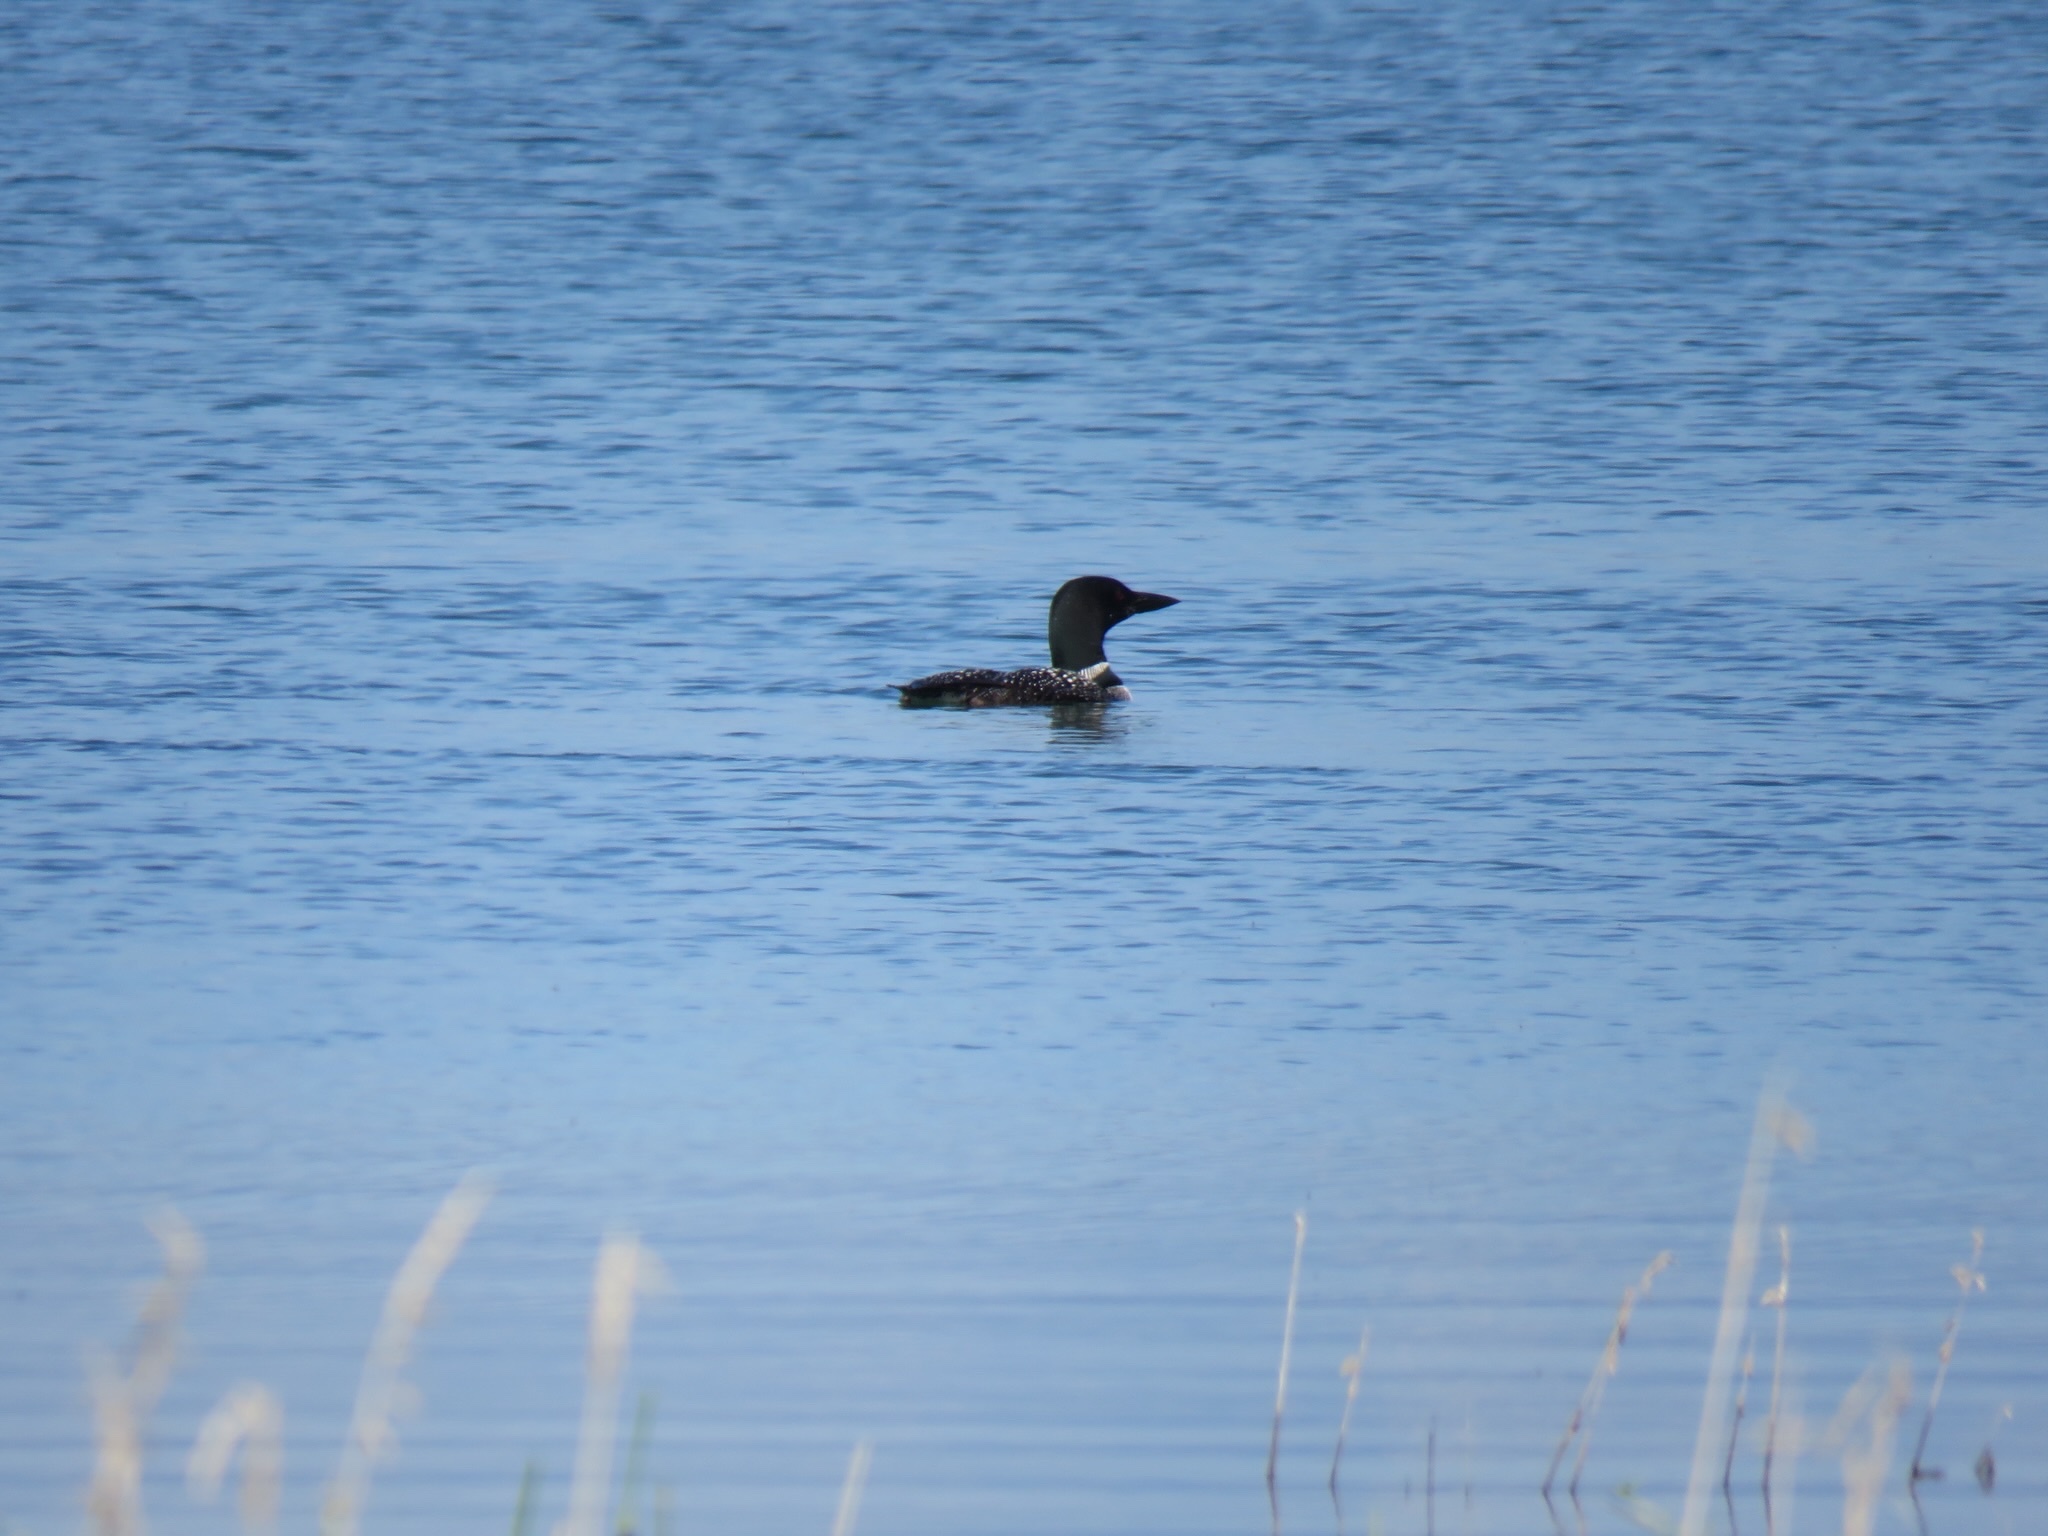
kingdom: Animalia
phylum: Chordata
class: Aves
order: Gaviiformes
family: Gaviidae
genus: Gavia
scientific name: Gavia immer
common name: Common loon
